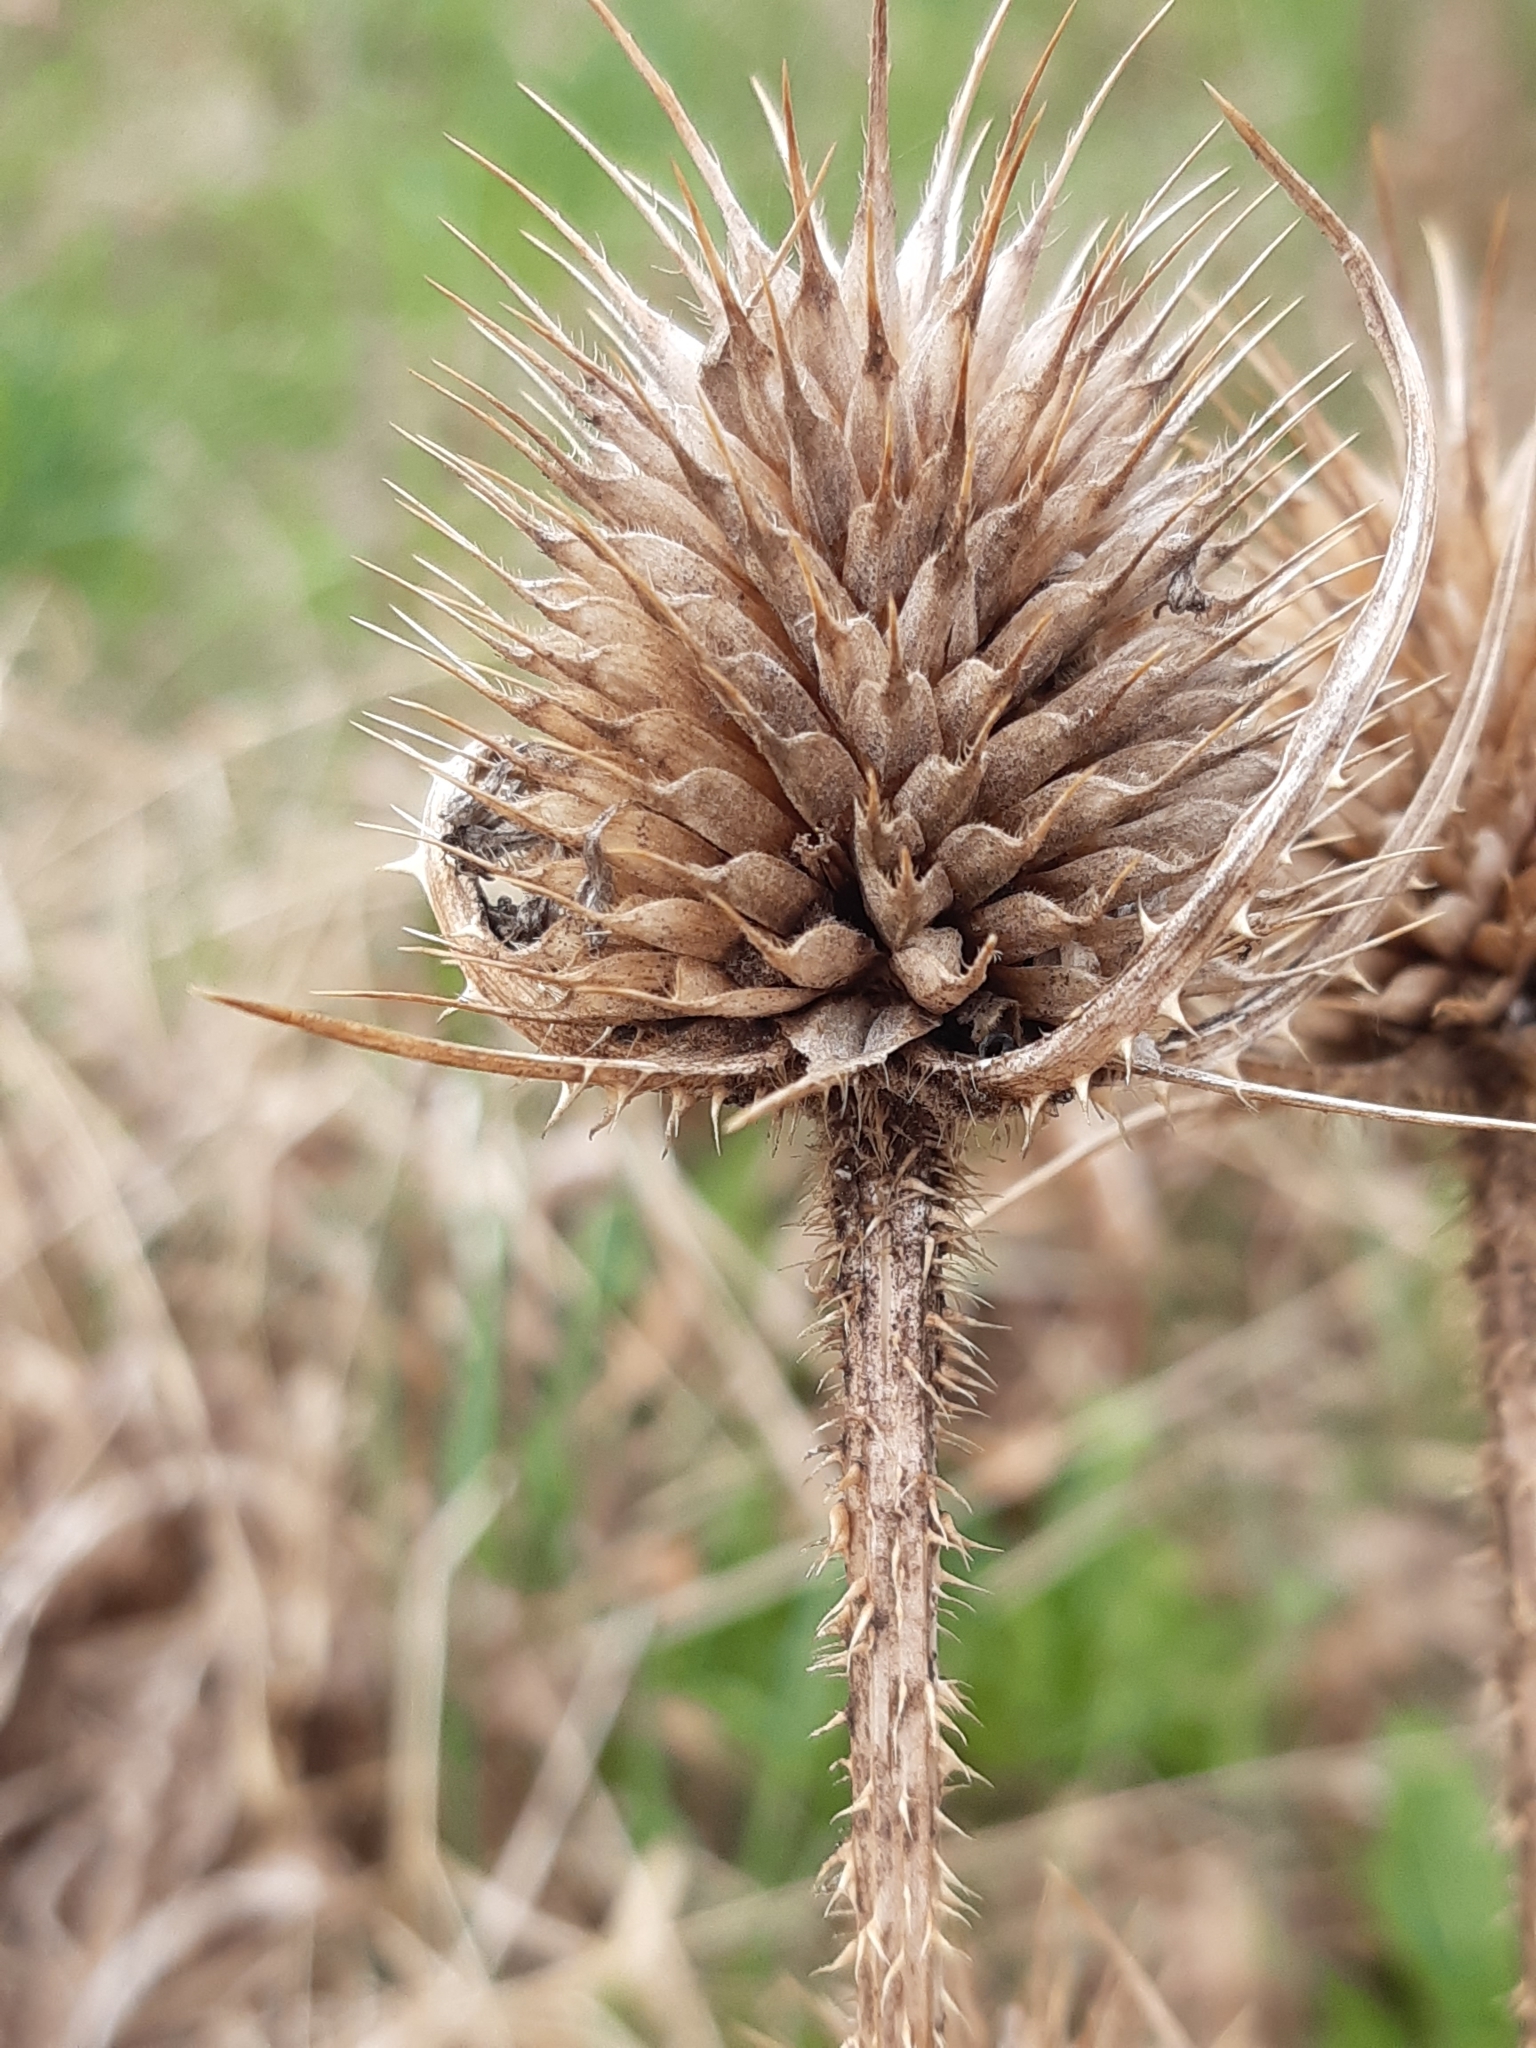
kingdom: Plantae
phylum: Tracheophyta
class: Magnoliopsida
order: Dipsacales
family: Caprifoliaceae
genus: Dipsacus
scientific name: Dipsacus fullonum
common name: Teasel
